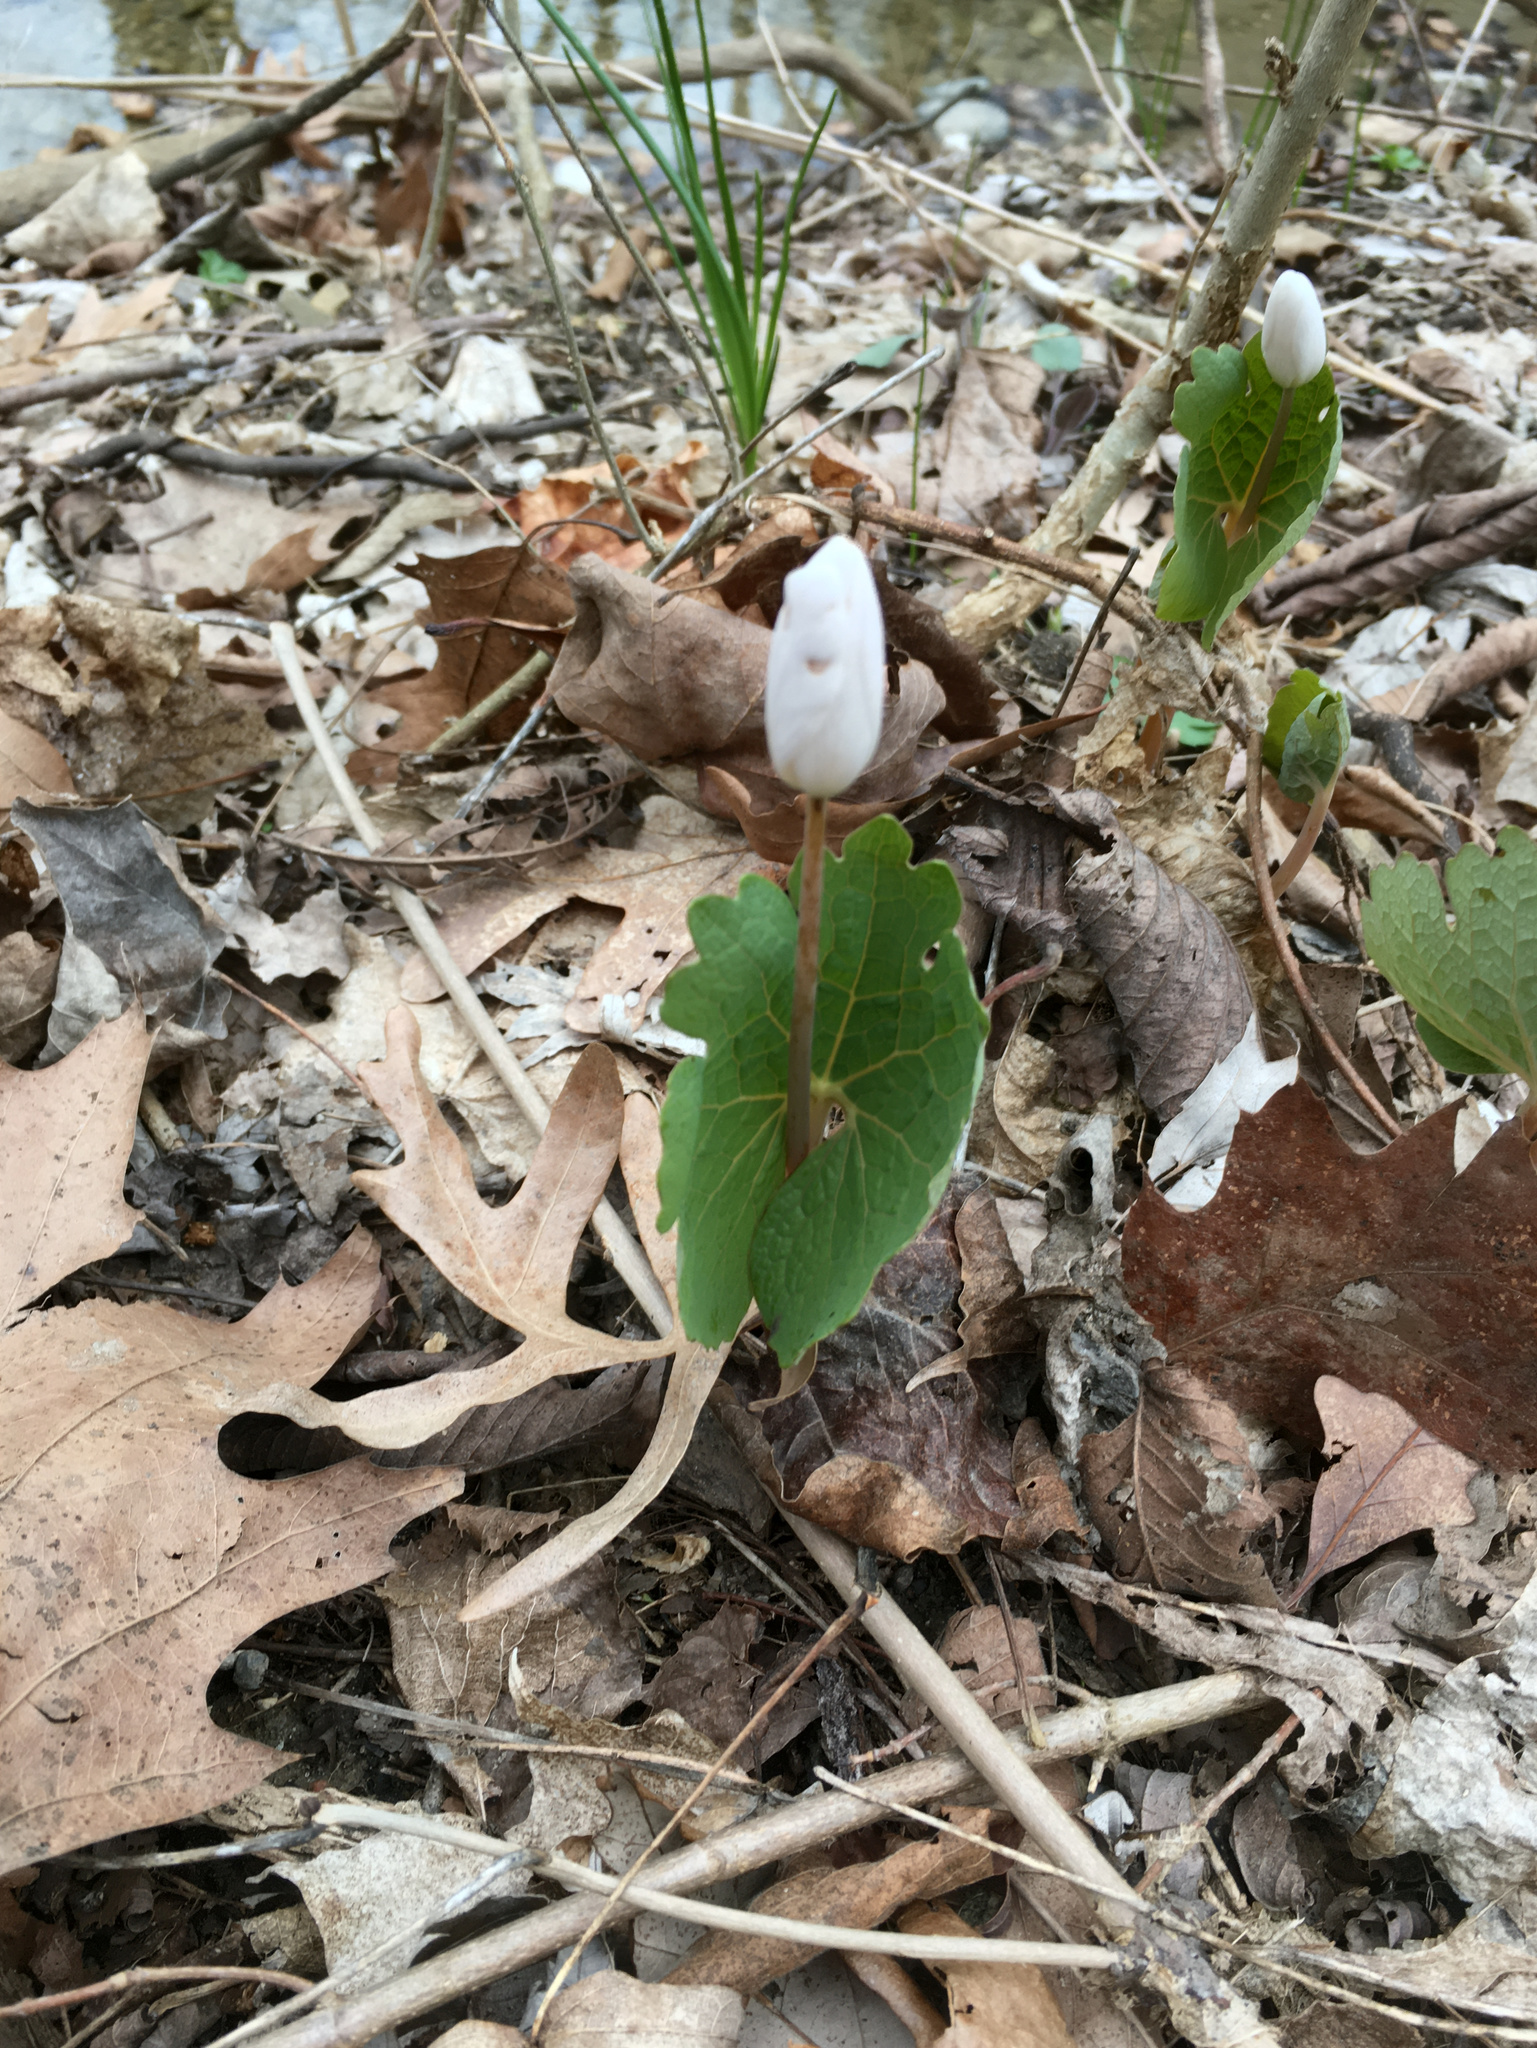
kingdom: Plantae
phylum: Tracheophyta
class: Magnoliopsida
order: Ranunculales
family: Papaveraceae
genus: Sanguinaria
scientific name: Sanguinaria canadensis
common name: Bloodroot
